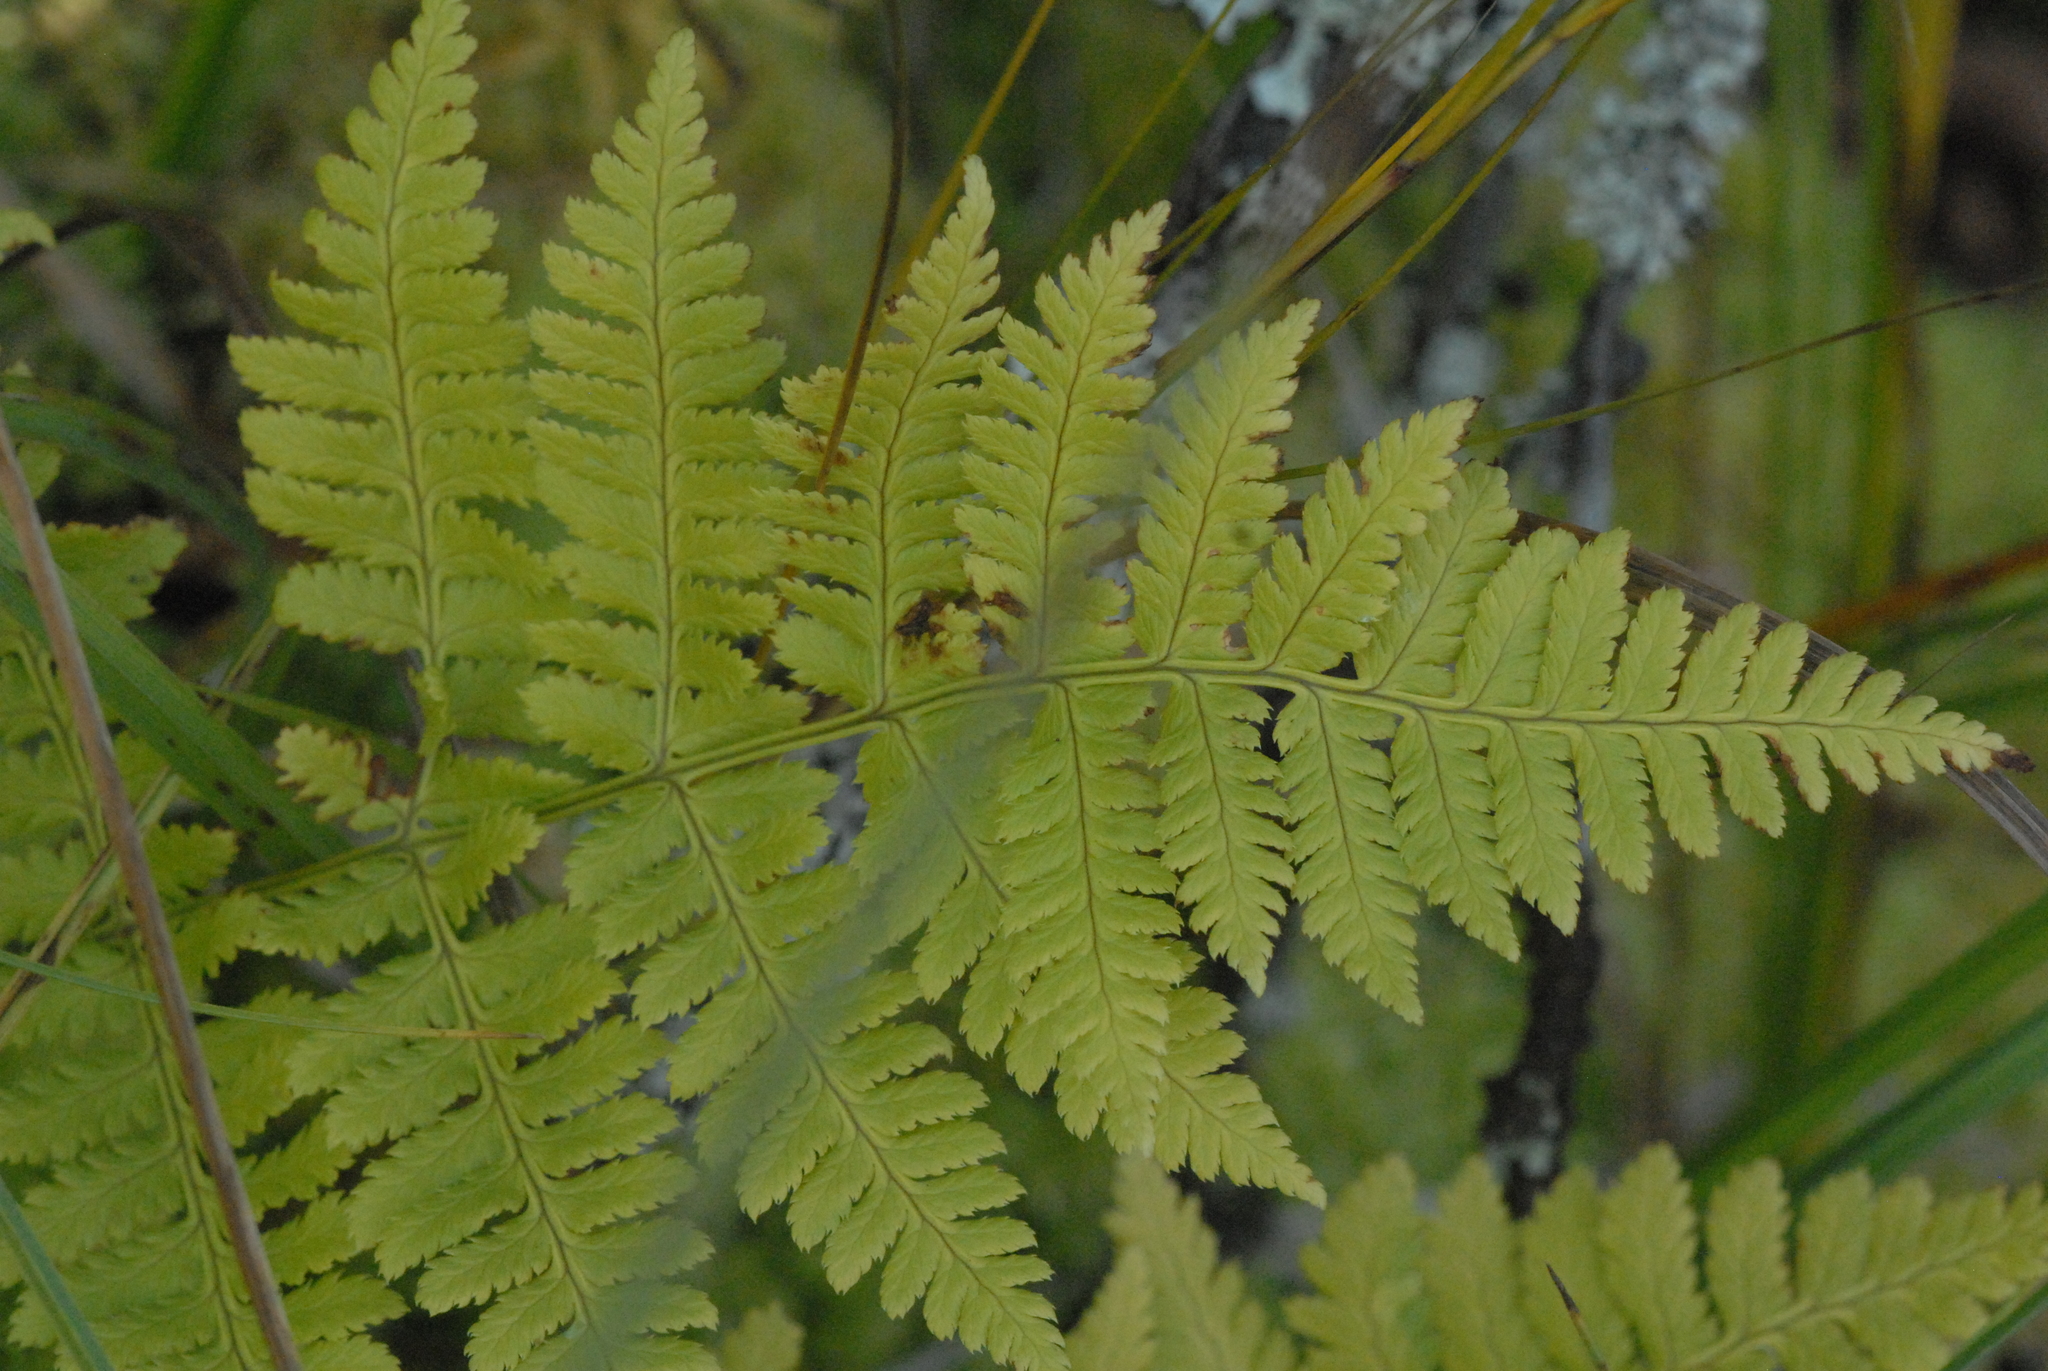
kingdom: Plantae
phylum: Tracheophyta
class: Polypodiopsida
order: Polypodiales
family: Dryopteridaceae
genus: Dryopteris
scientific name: Dryopteris carthusiana
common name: Narrow buckler-fern
